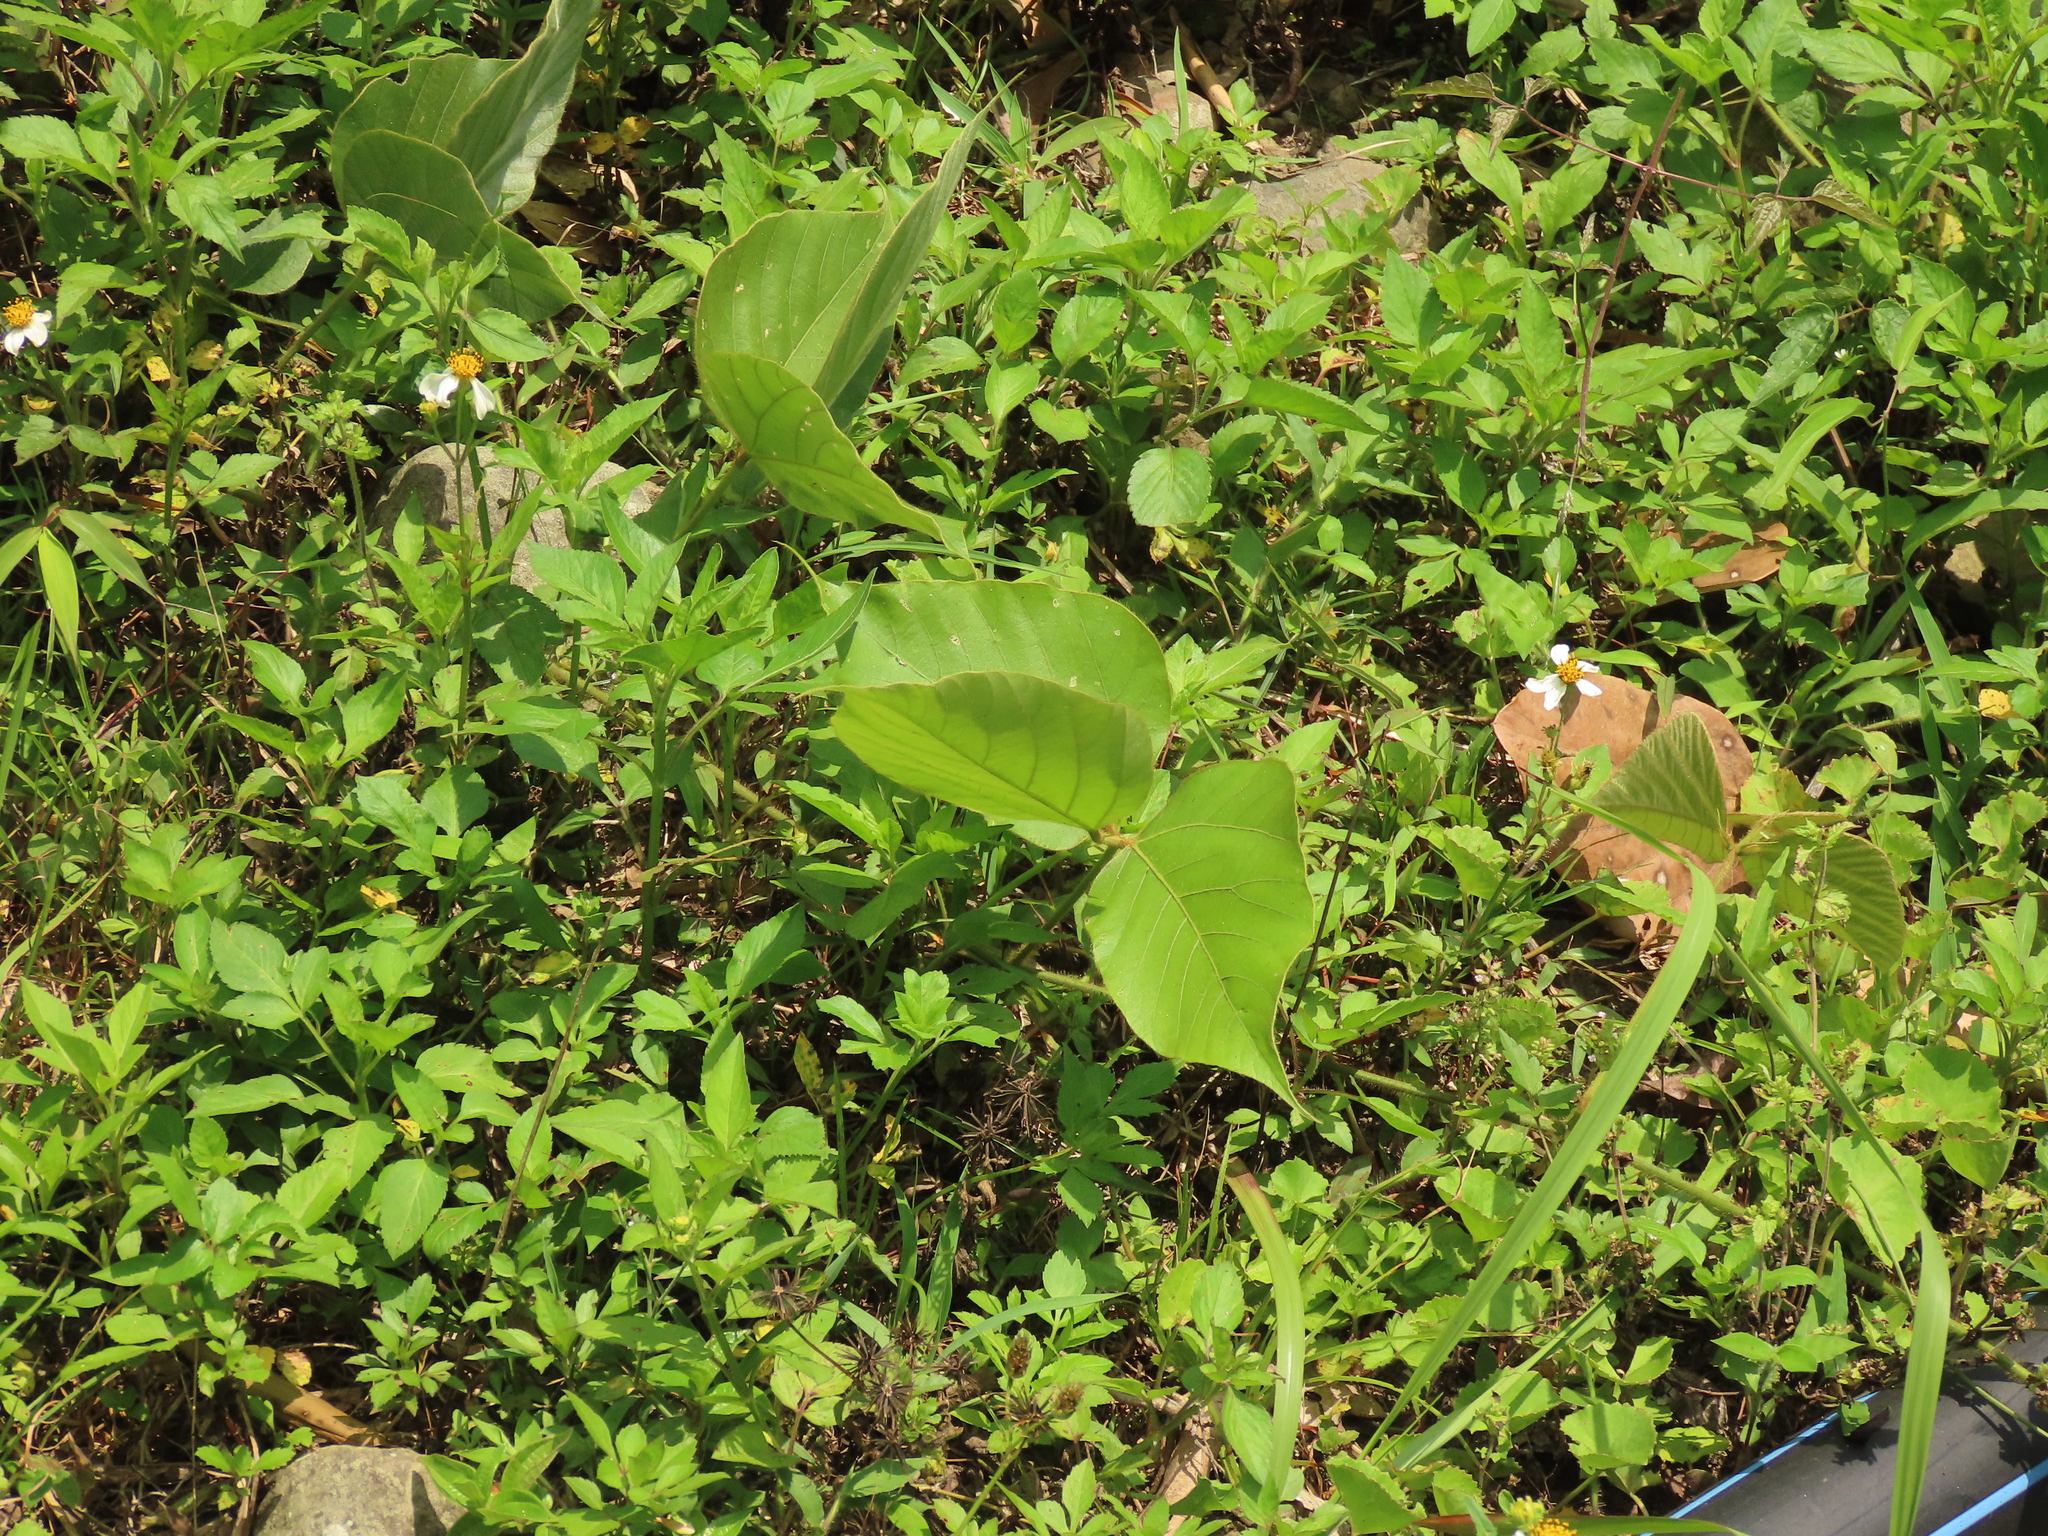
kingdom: Plantae
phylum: Tracheophyta
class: Magnoliopsida
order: Fabales
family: Fabaceae
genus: Pueraria
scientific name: Pueraria montana
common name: Kudzu
